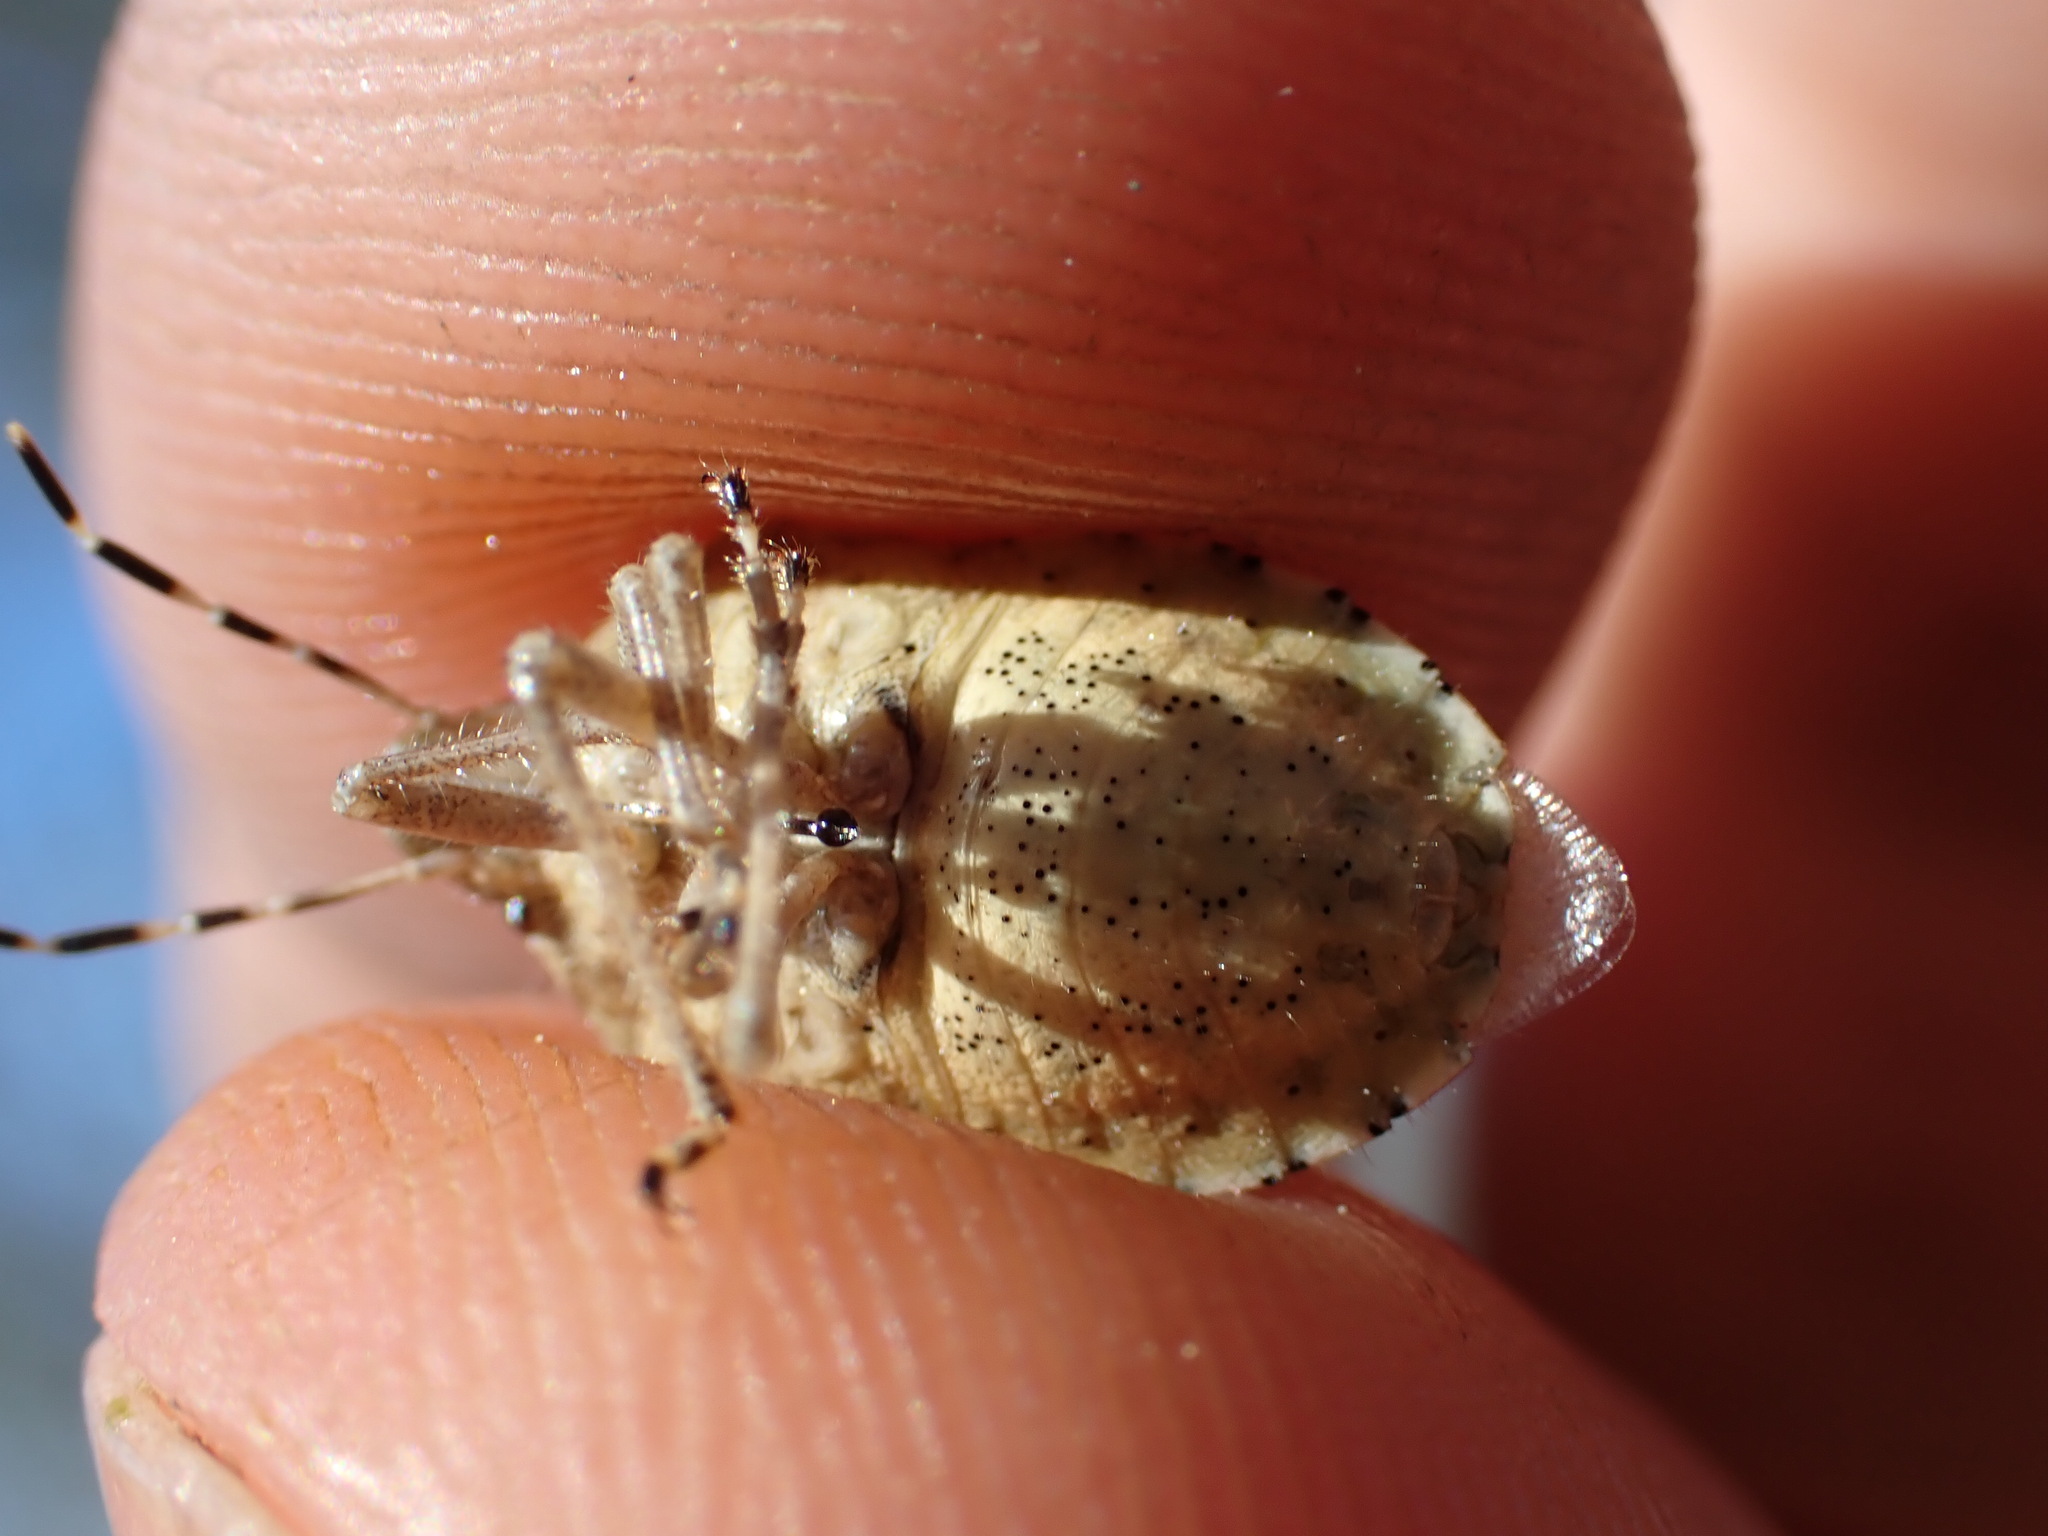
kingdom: Animalia
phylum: Arthropoda
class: Insecta
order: Hemiptera
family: Pentatomidae
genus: Dolycoris
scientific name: Dolycoris baccarum
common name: Sloe bug
